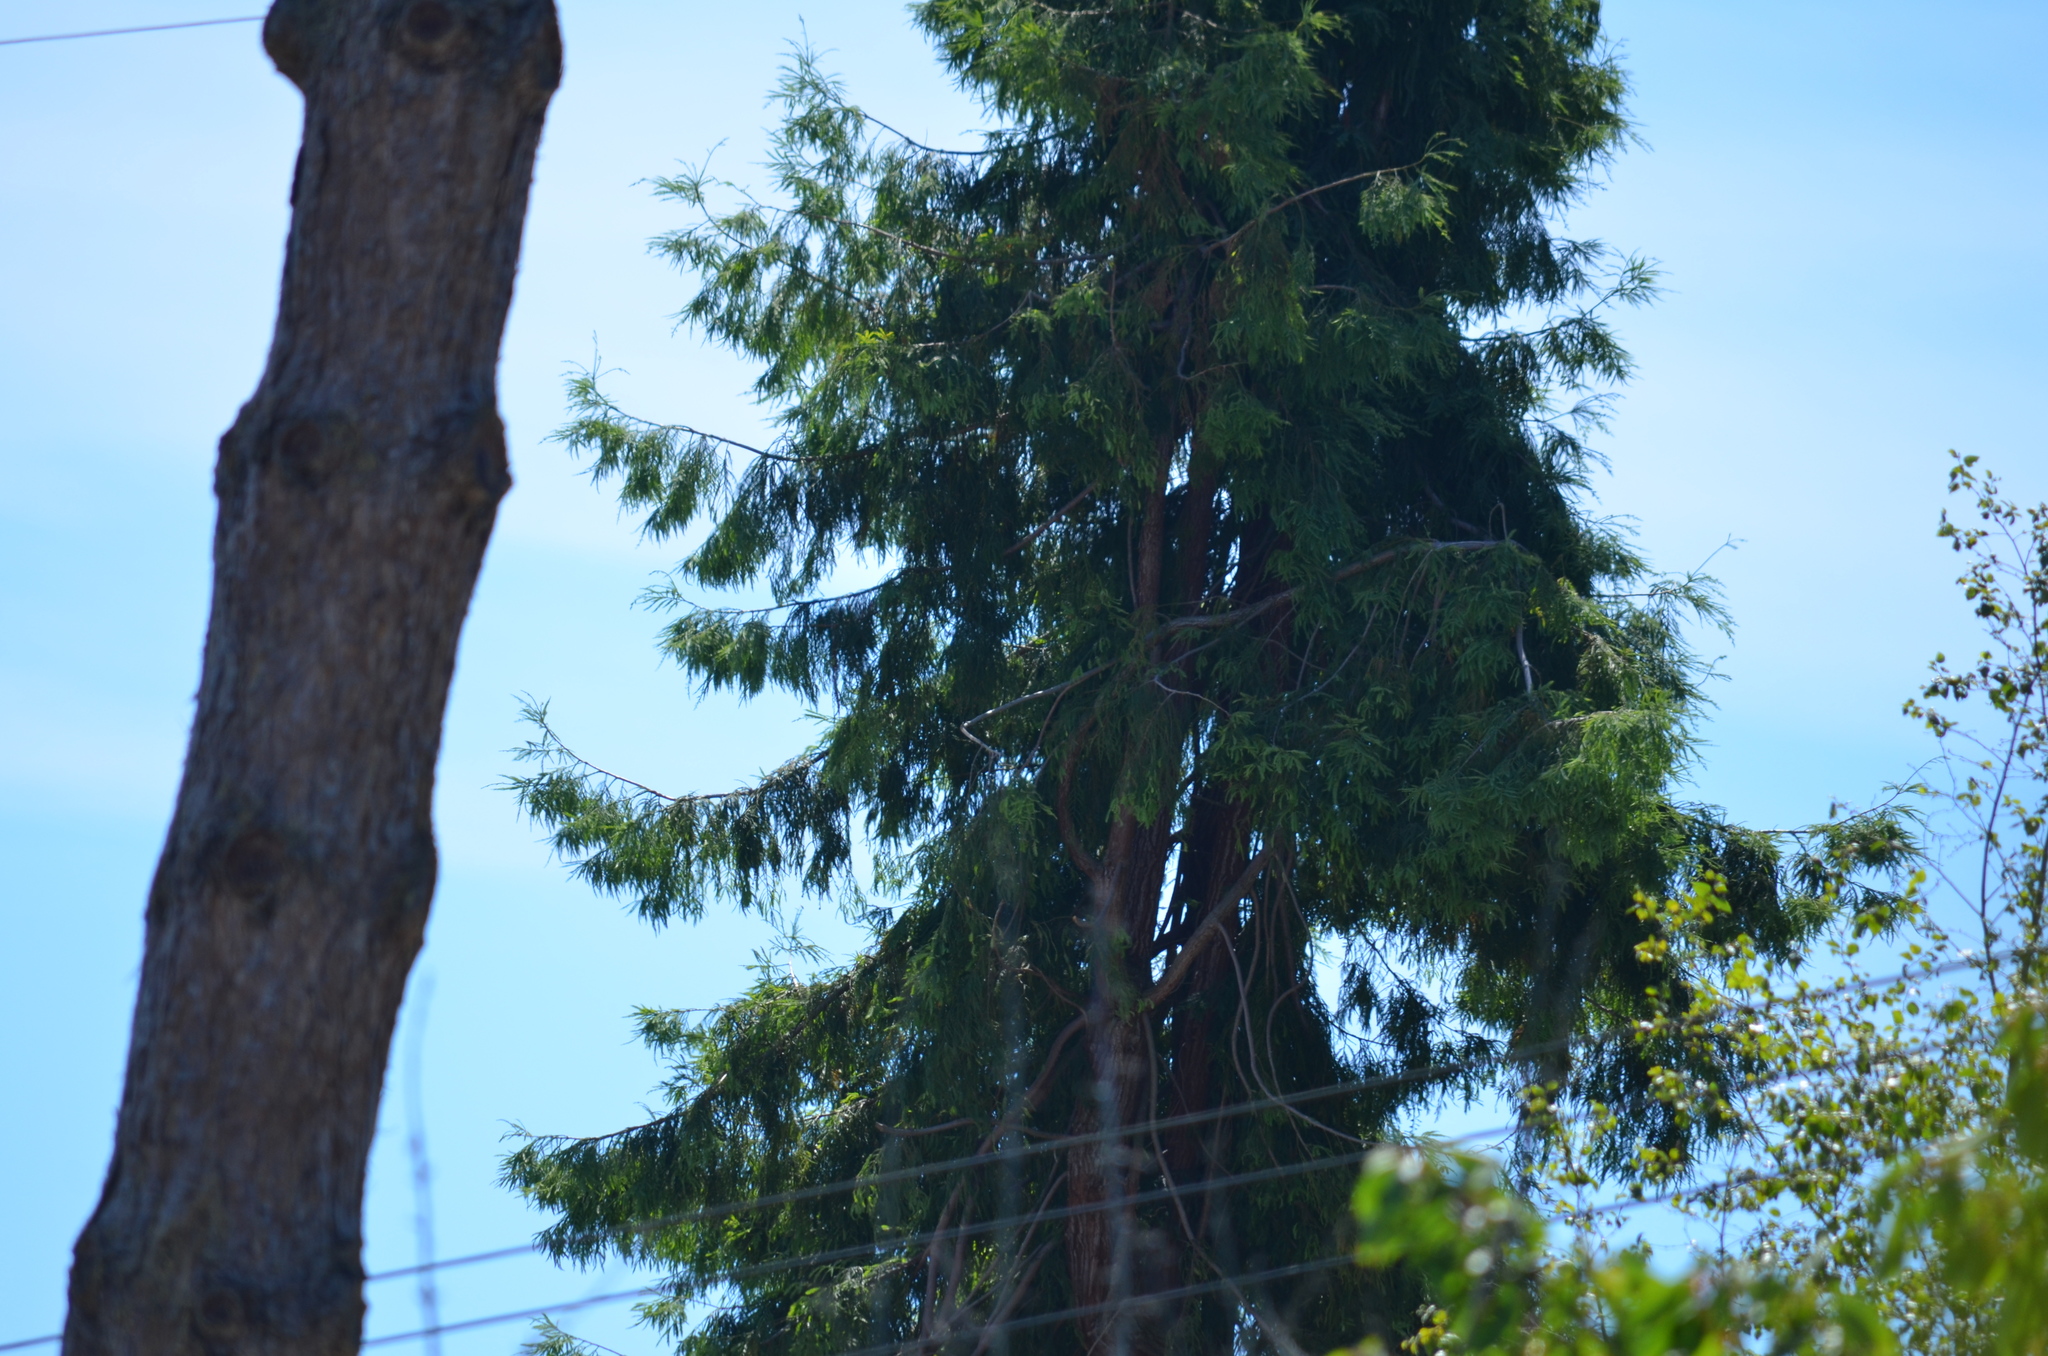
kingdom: Plantae
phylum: Tracheophyta
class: Pinopsida
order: Pinales
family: Cupressaceae
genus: Thuja
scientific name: Thuja plicata
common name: Western red-cedar
